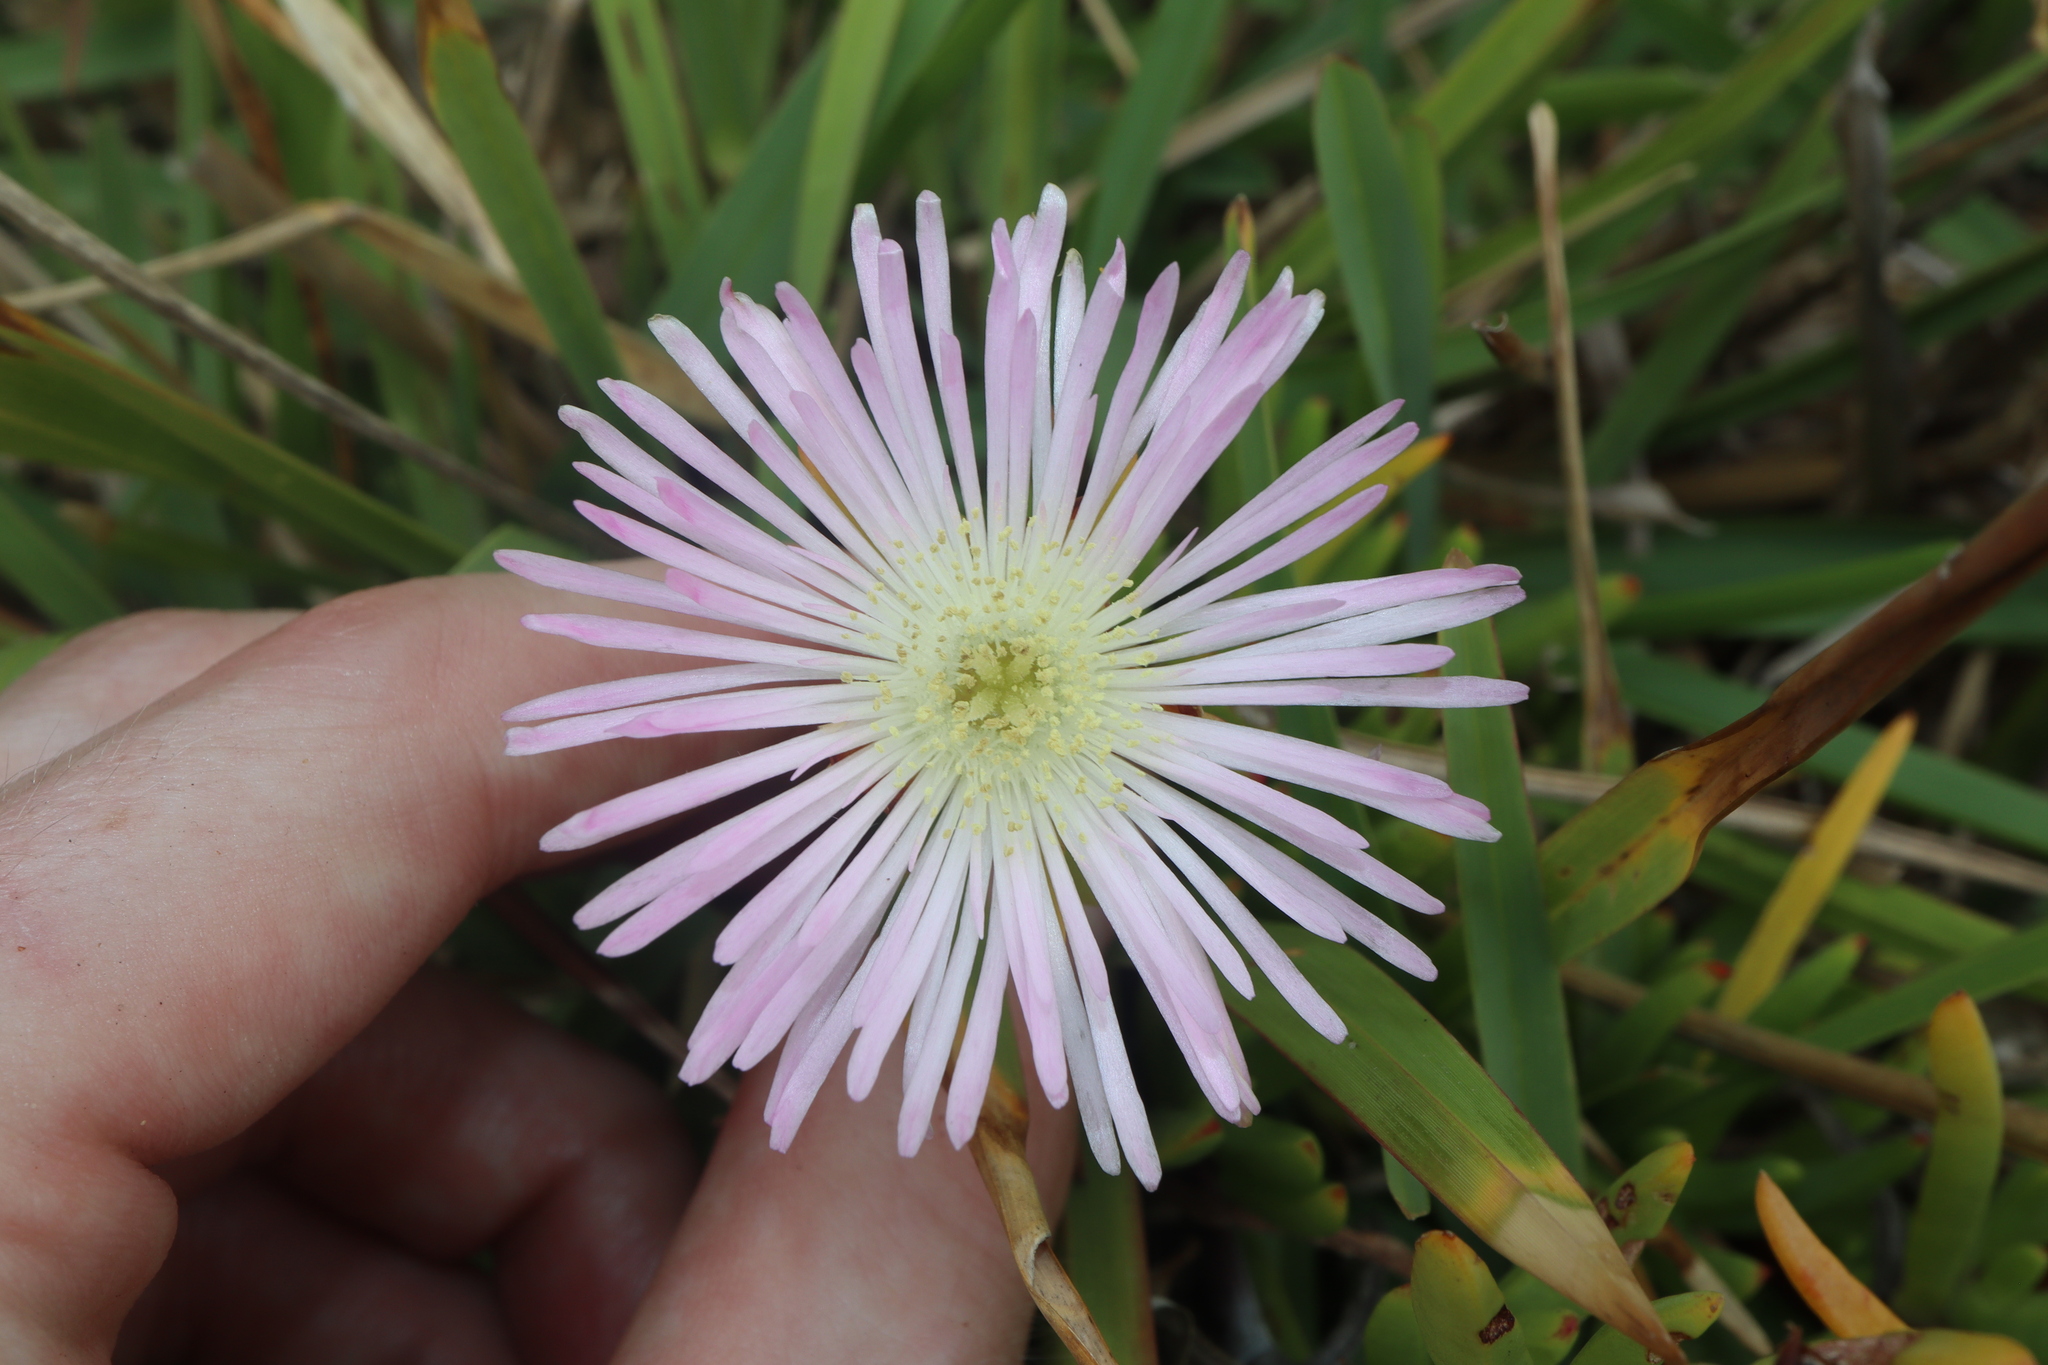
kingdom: Plantae
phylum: Tracheophyta
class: Magnoliopsida
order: Caryophyllales
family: Aizoaceae
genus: Lampranthus
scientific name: Lampranthus spectabilis
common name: Trailing iceplant
